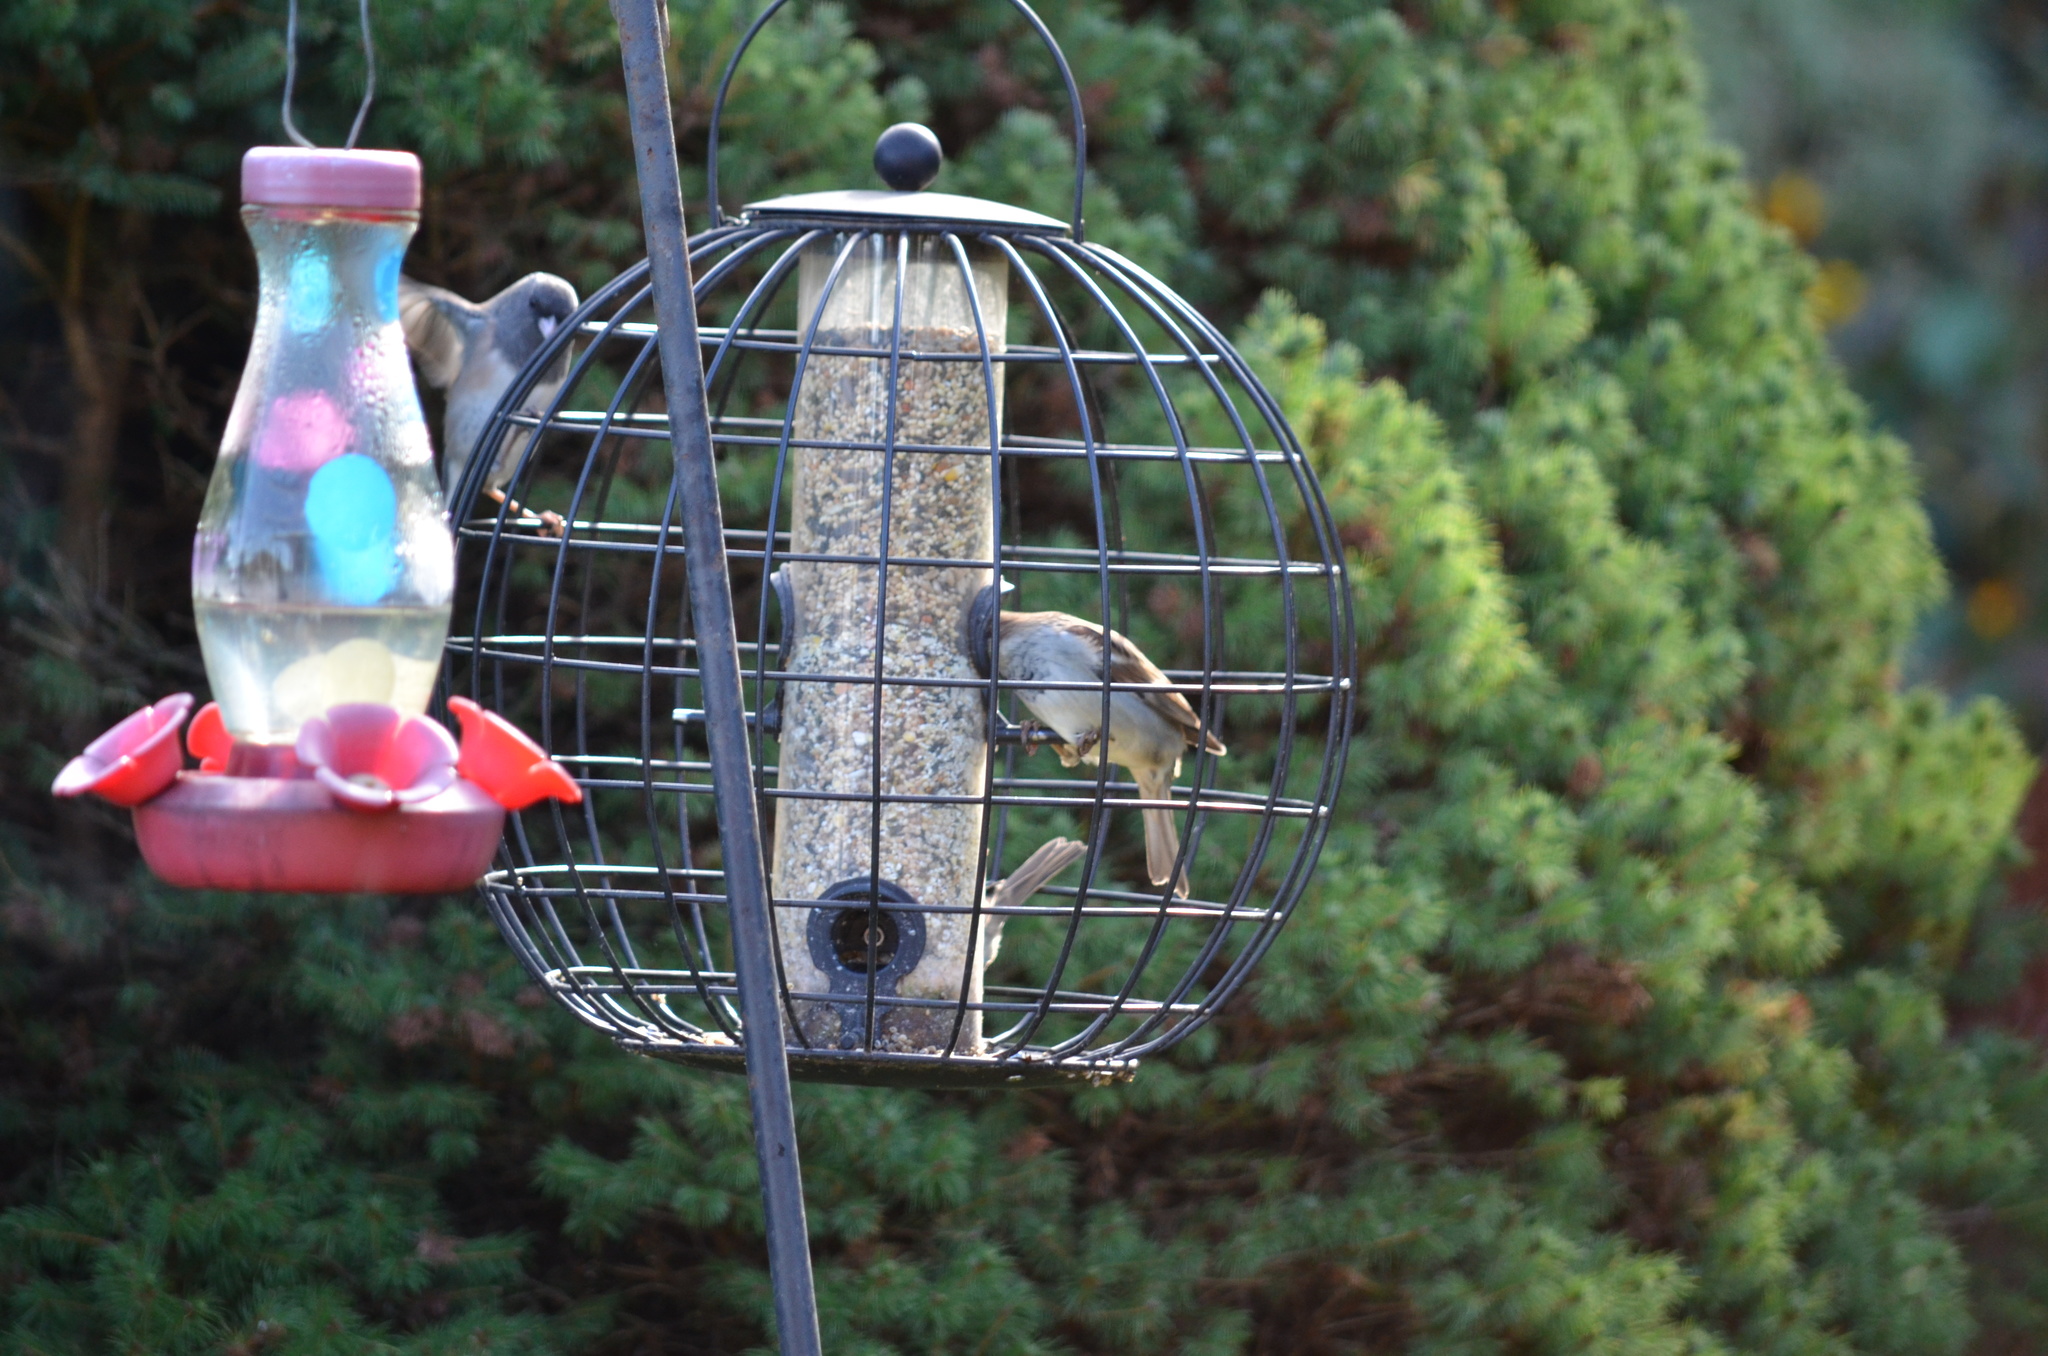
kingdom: Animalia
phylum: Chordata
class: Aves
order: Passeriformes
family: Passeridae
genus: Passer
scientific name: Passer domesticus
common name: House sparrow
